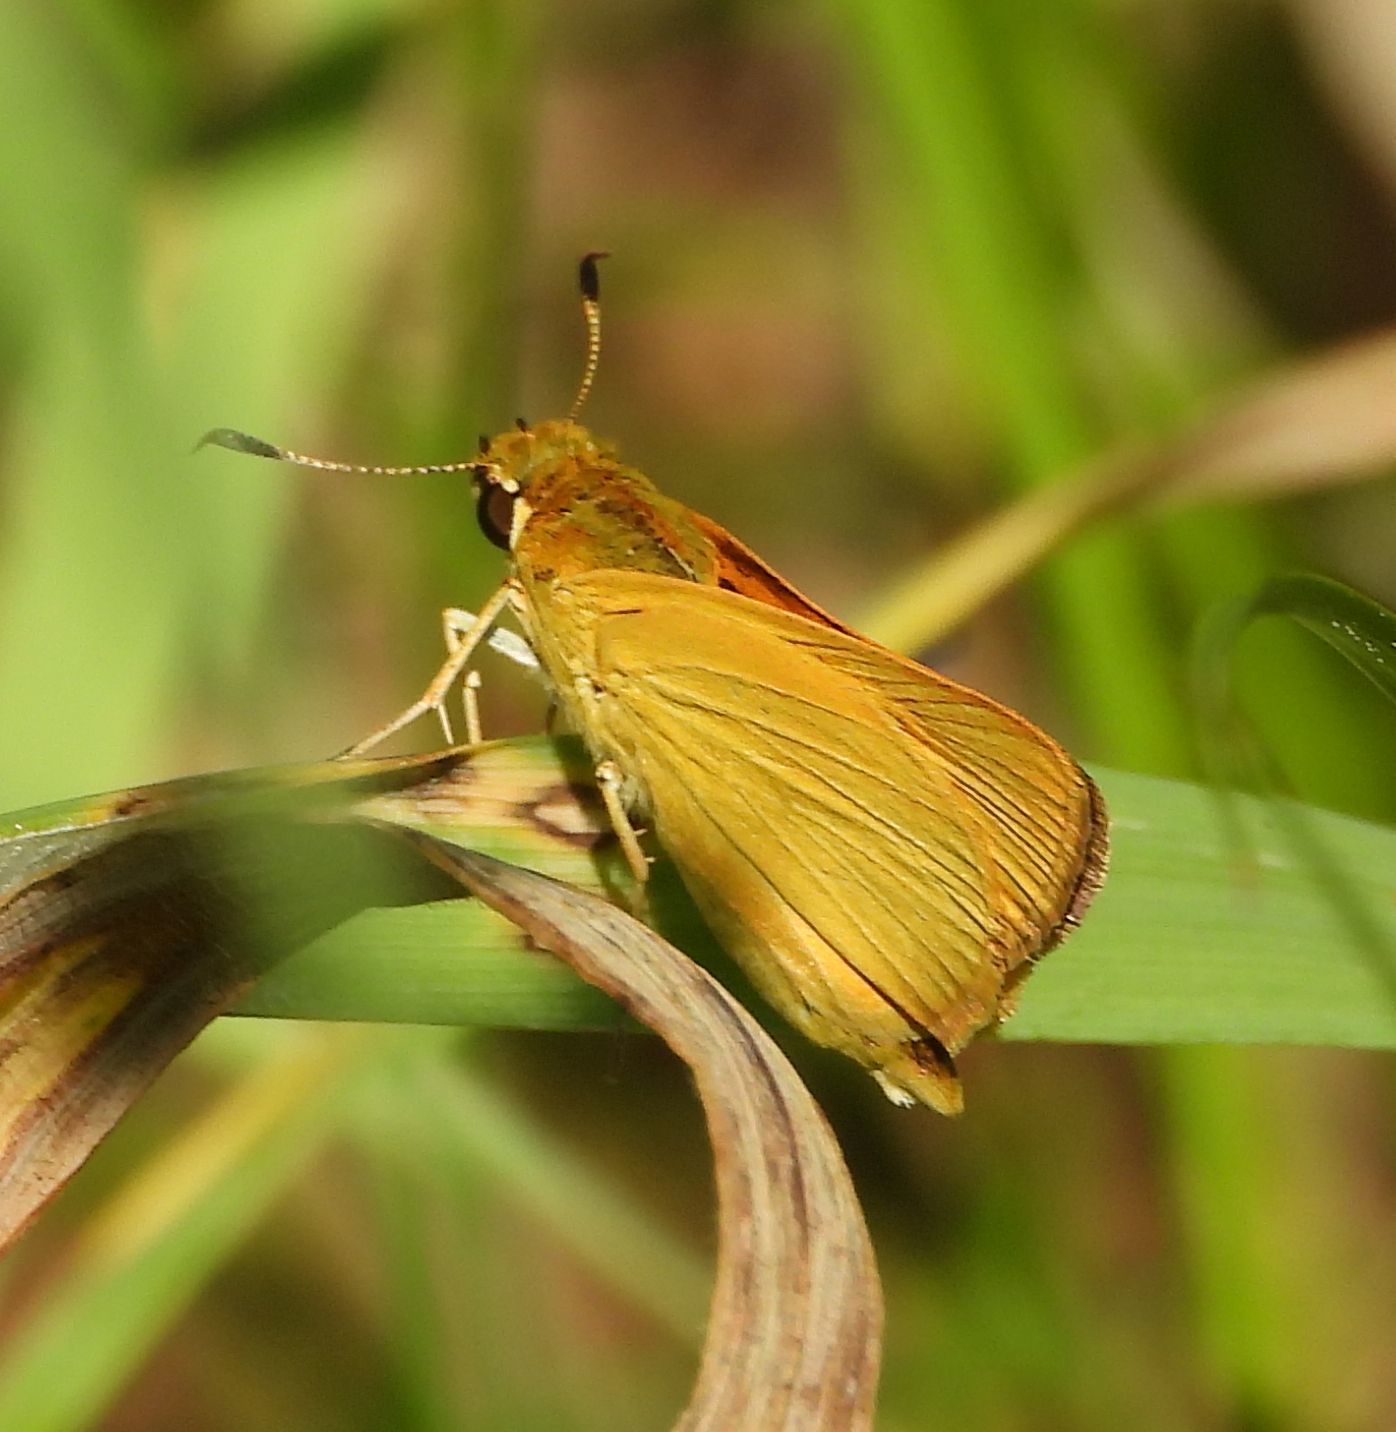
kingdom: Animalia
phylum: Arthropoda
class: Insecta
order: Lepidoptera
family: Hesperiidae
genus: Atrytone
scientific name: Atrytone delaware
